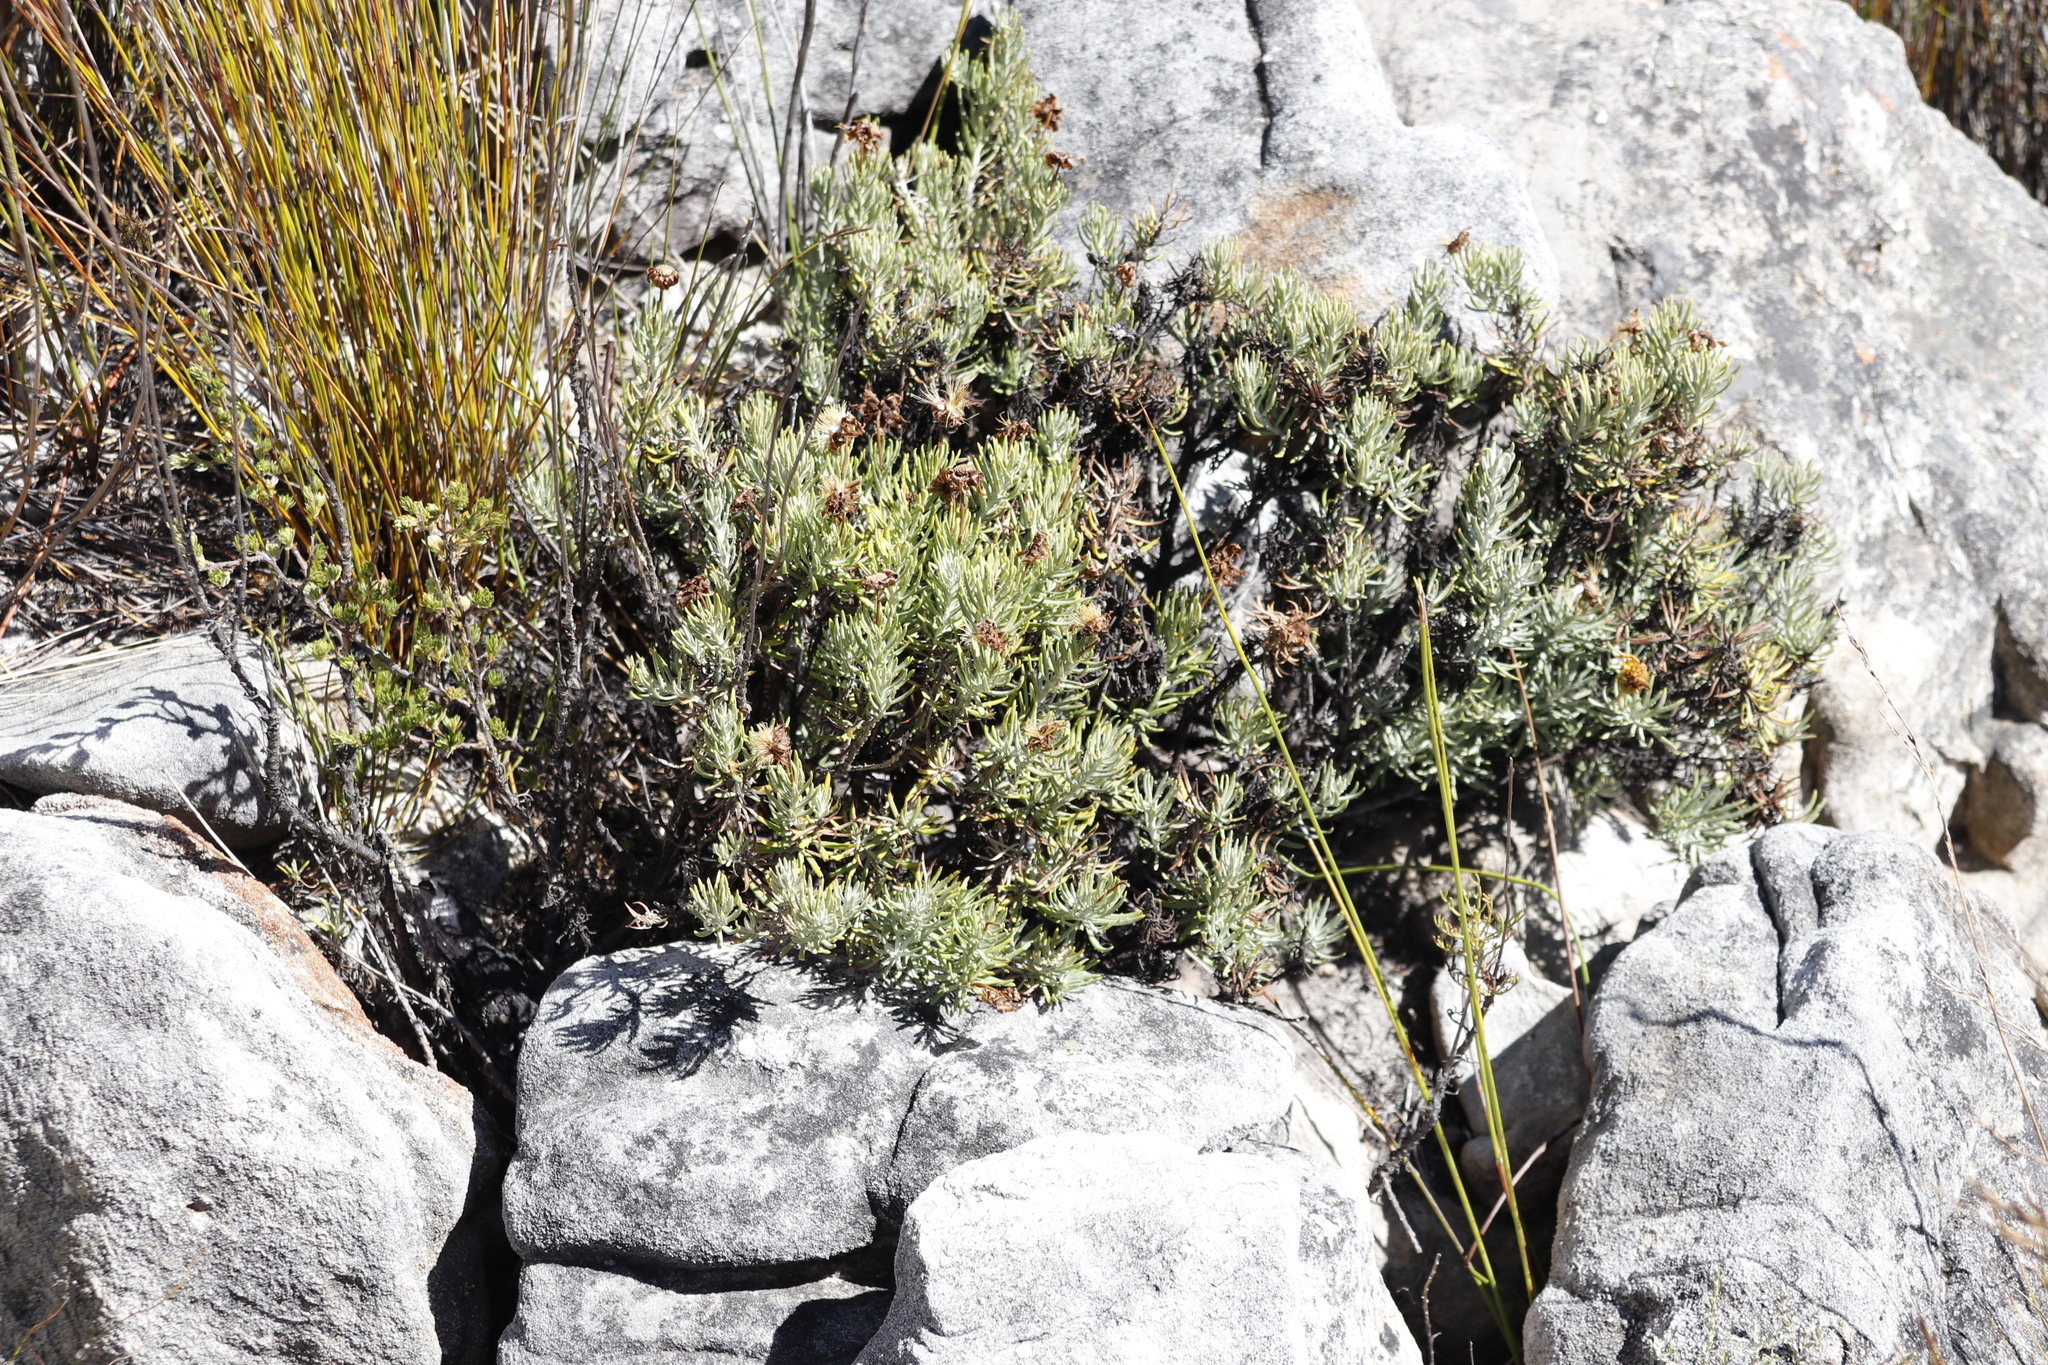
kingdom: Plantae
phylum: Tracheophyta
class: Magnoliopsida
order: Asterales
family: Asteraceae
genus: Heterolepis
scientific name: Heterolepis aliena
